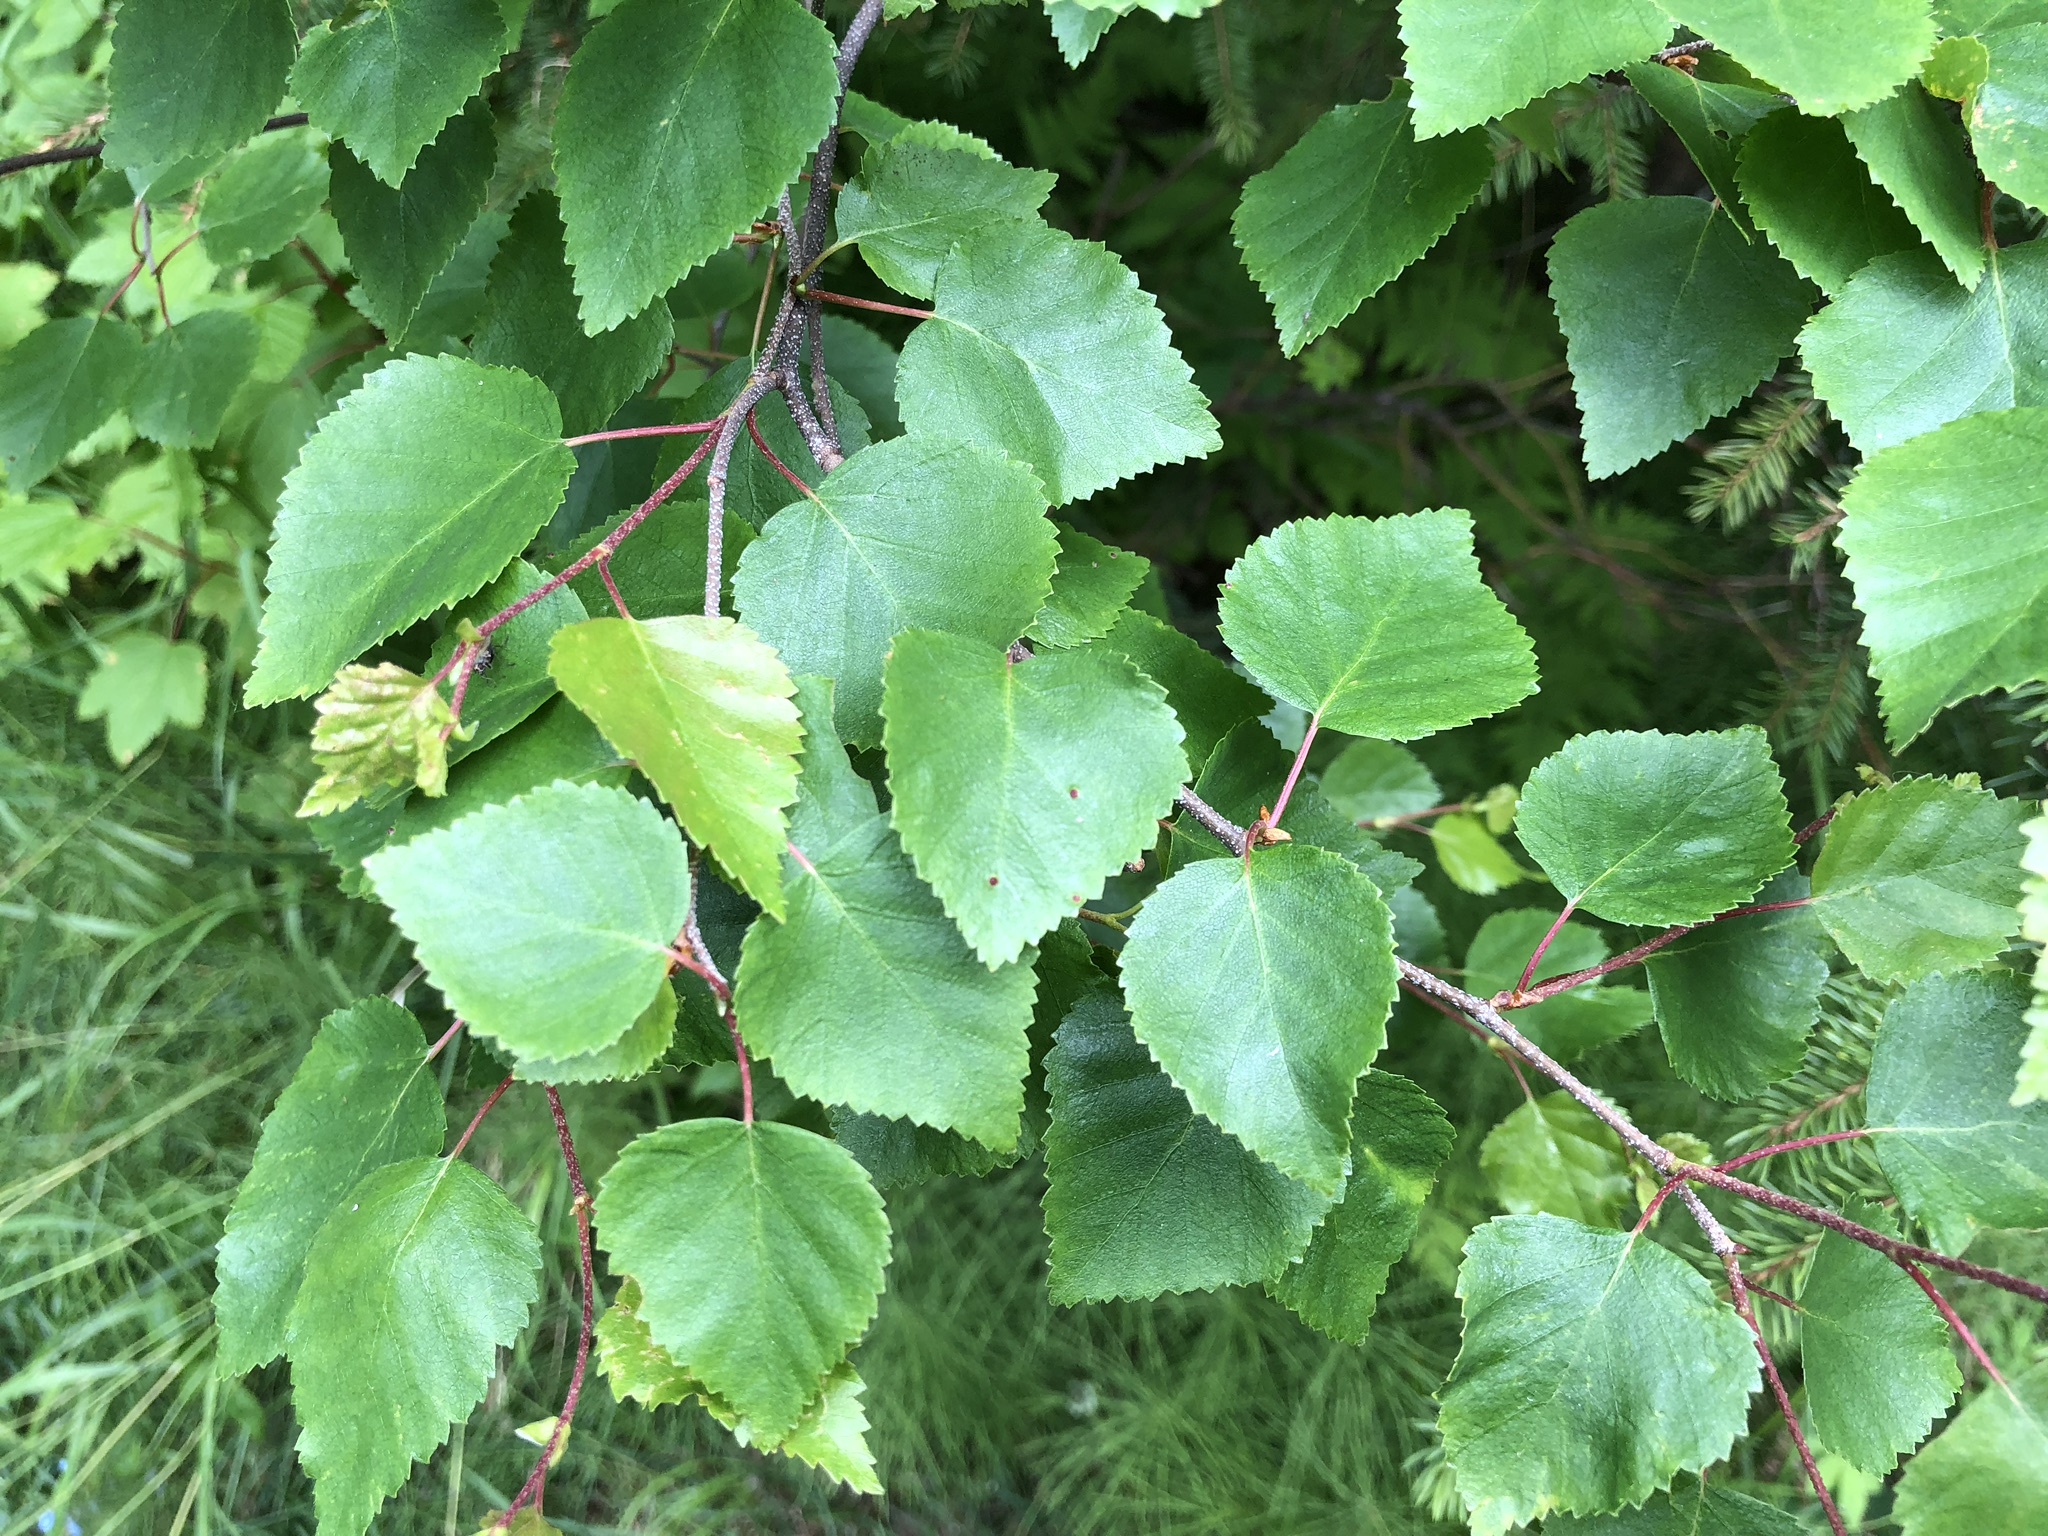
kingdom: Plantae
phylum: Tracheophyta
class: Magnoliopsida
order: Fagales
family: Betulaceae
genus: Betula
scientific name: Betula papyrifera
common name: Paper birch
